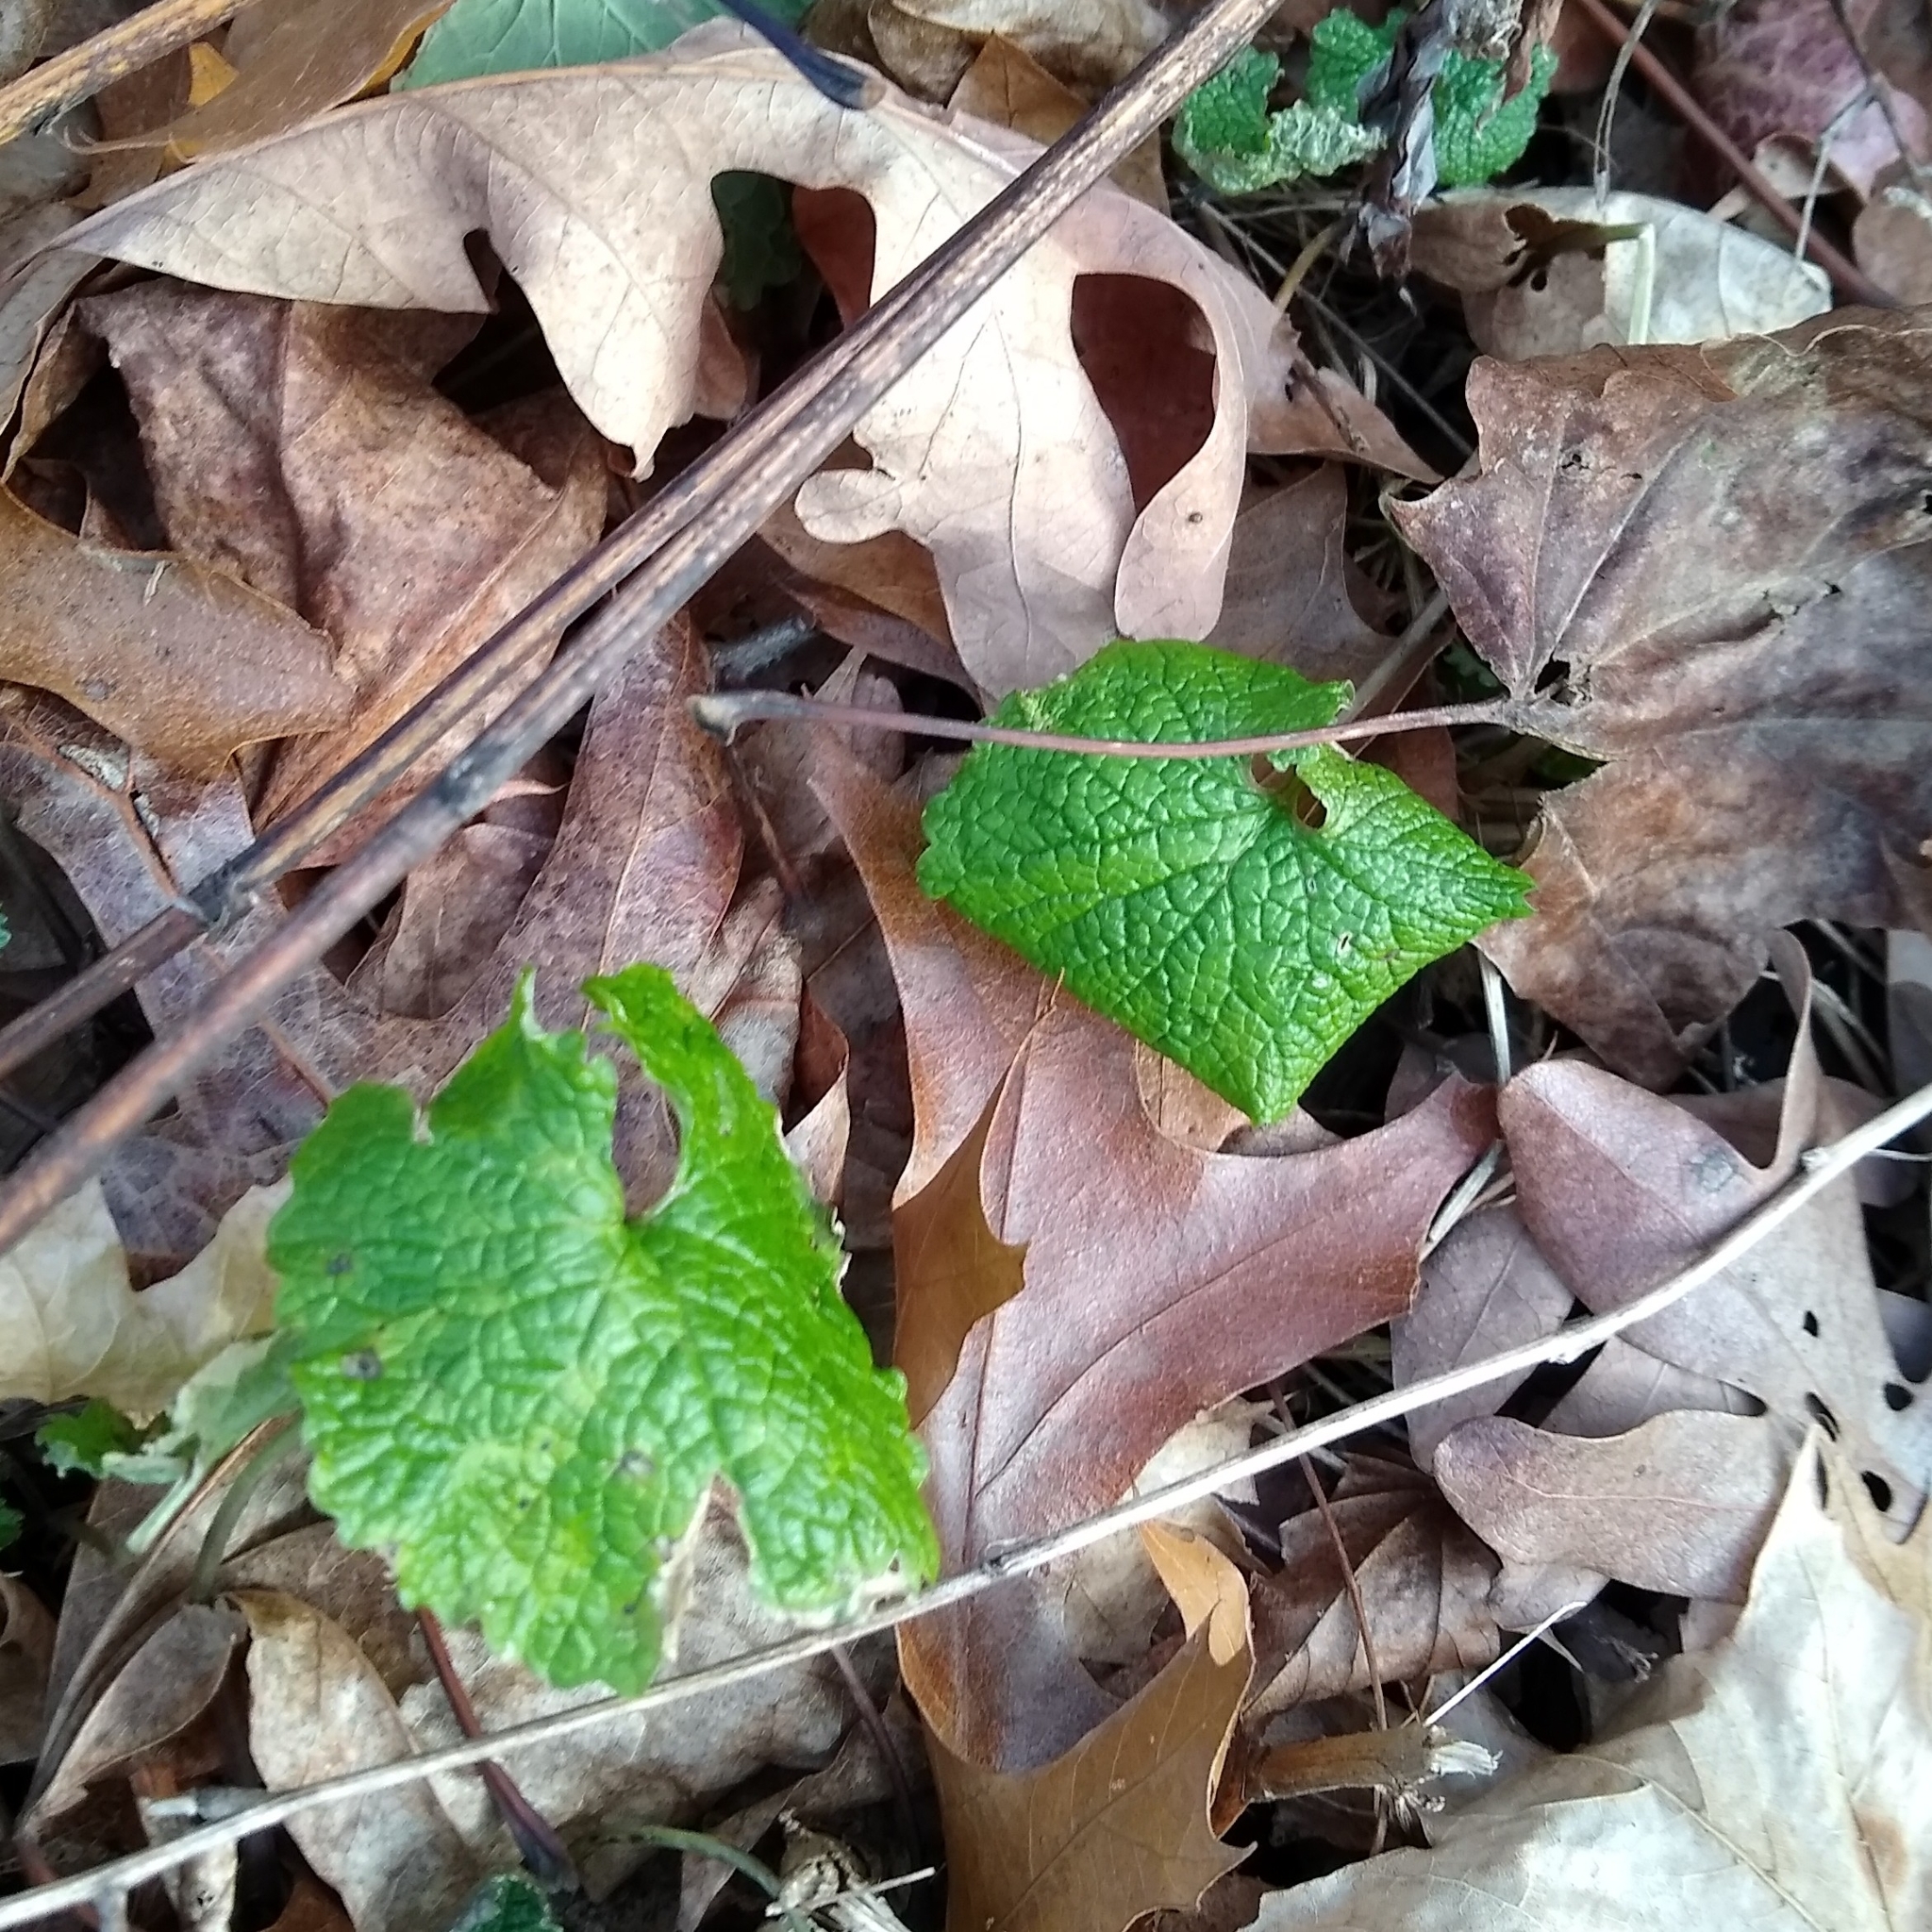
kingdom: Plantae
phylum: Tracheophyta
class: Magnoliopsida
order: Brassicales
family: Brassicaceae
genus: Alliaria
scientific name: Alliaria petiolata
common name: Garlic mustard
